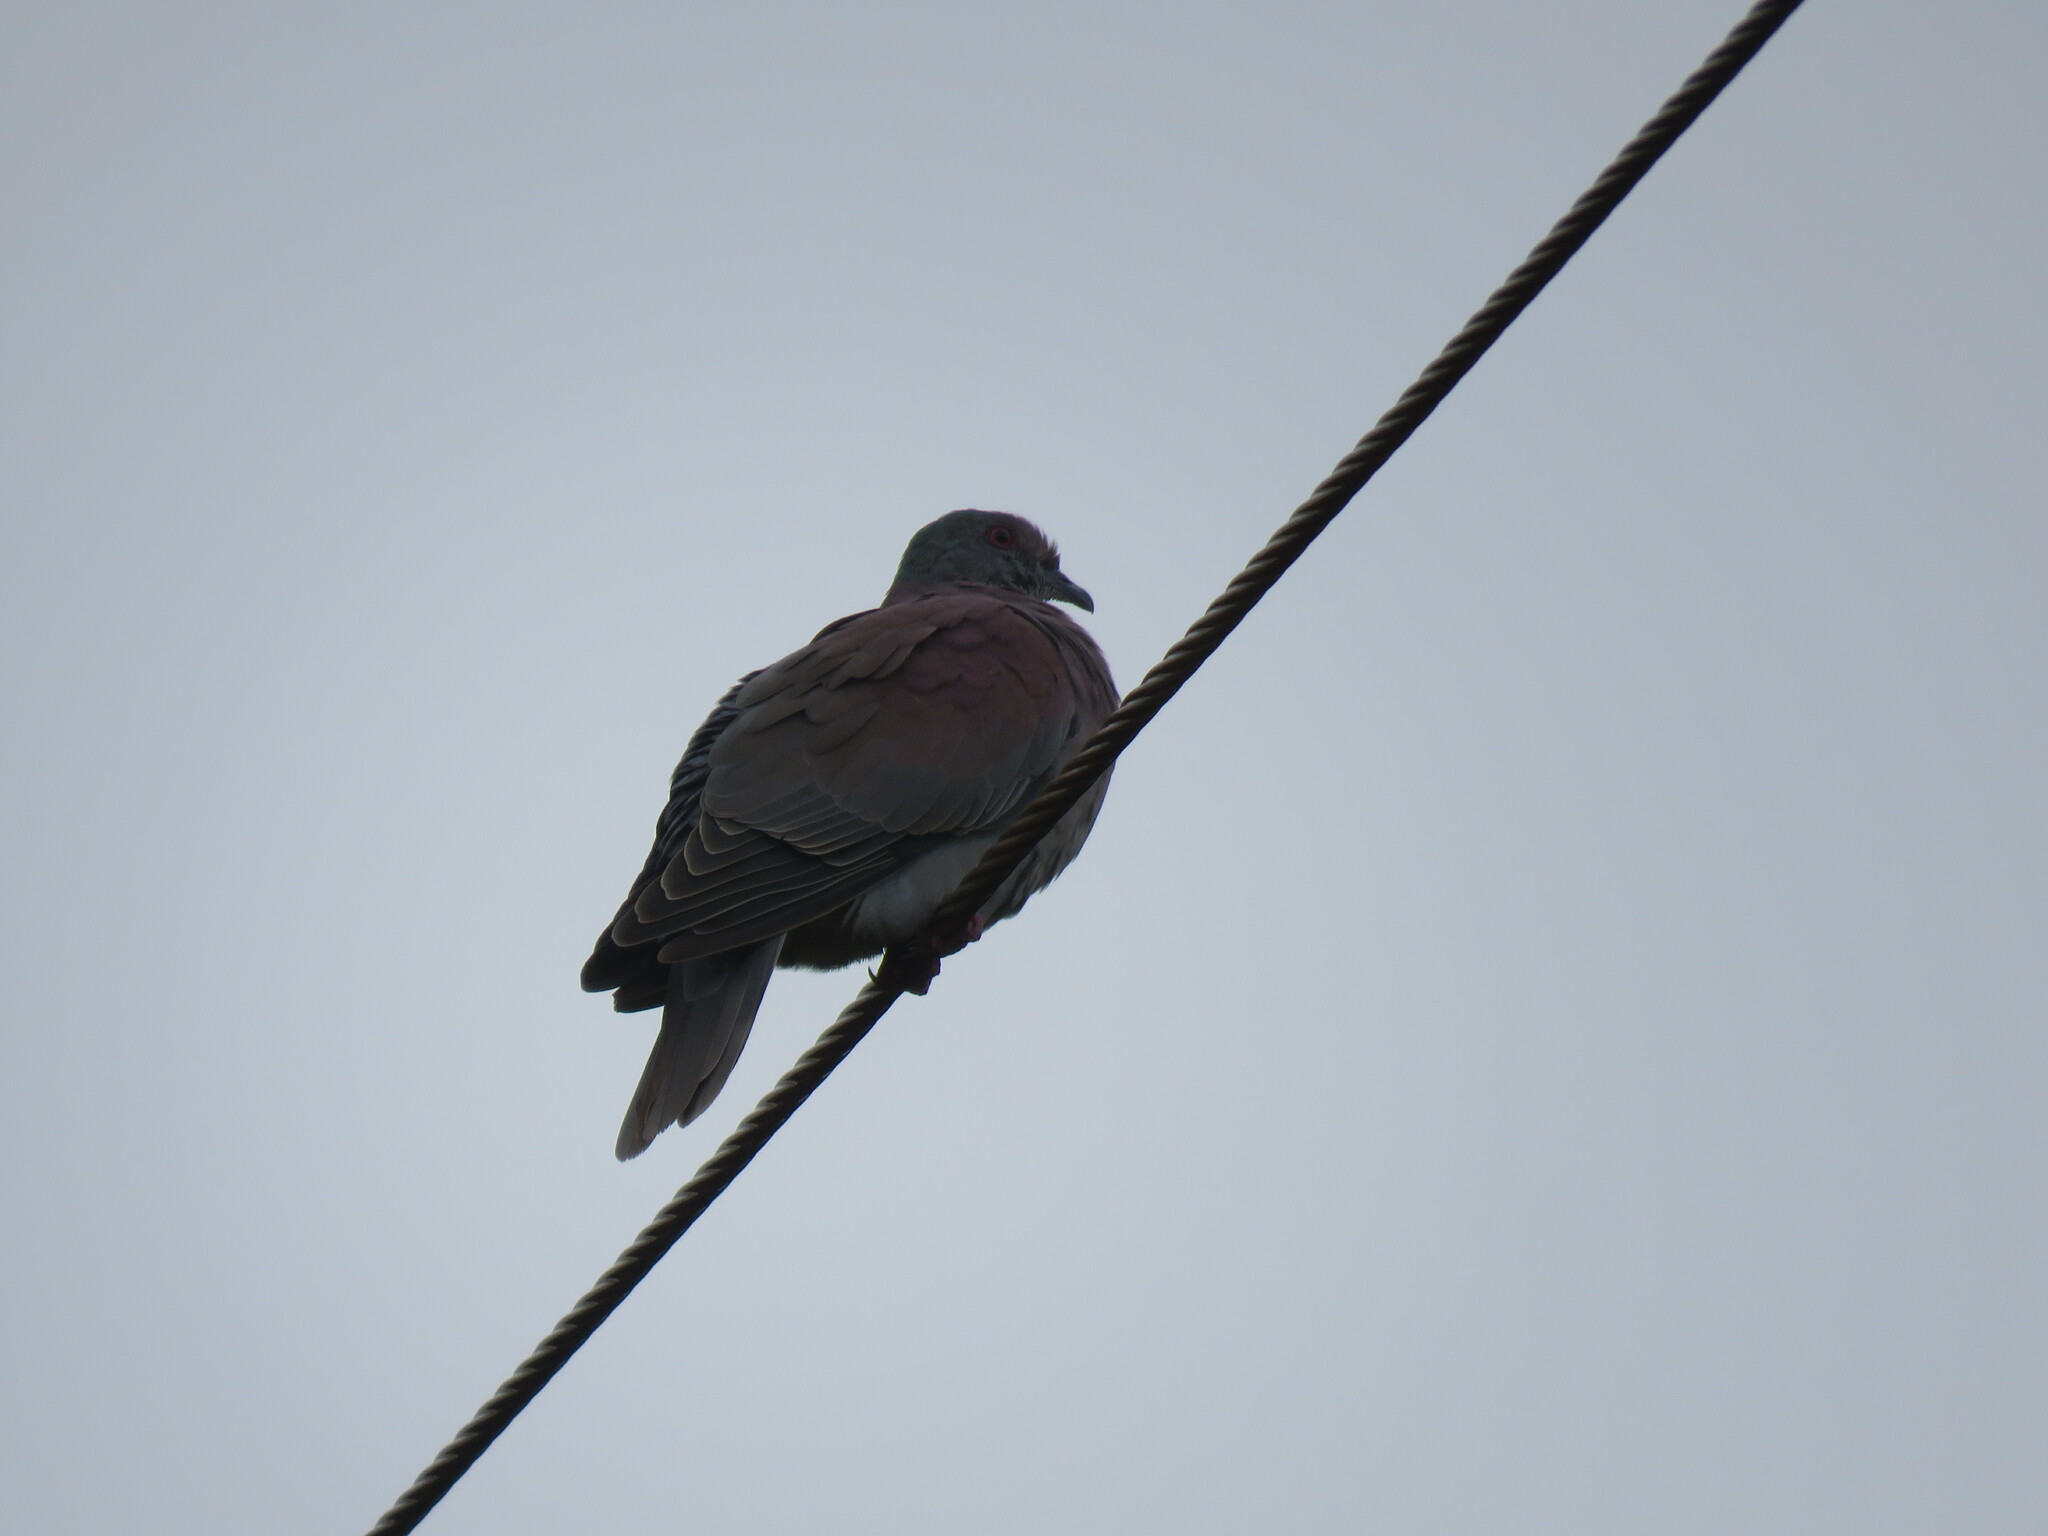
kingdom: Animalia
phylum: Chordata
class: Aves
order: Columbiformes
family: Columbidae
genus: Patagioenas
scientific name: Patagioenas cayennensis
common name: Pale-vented pigeon
